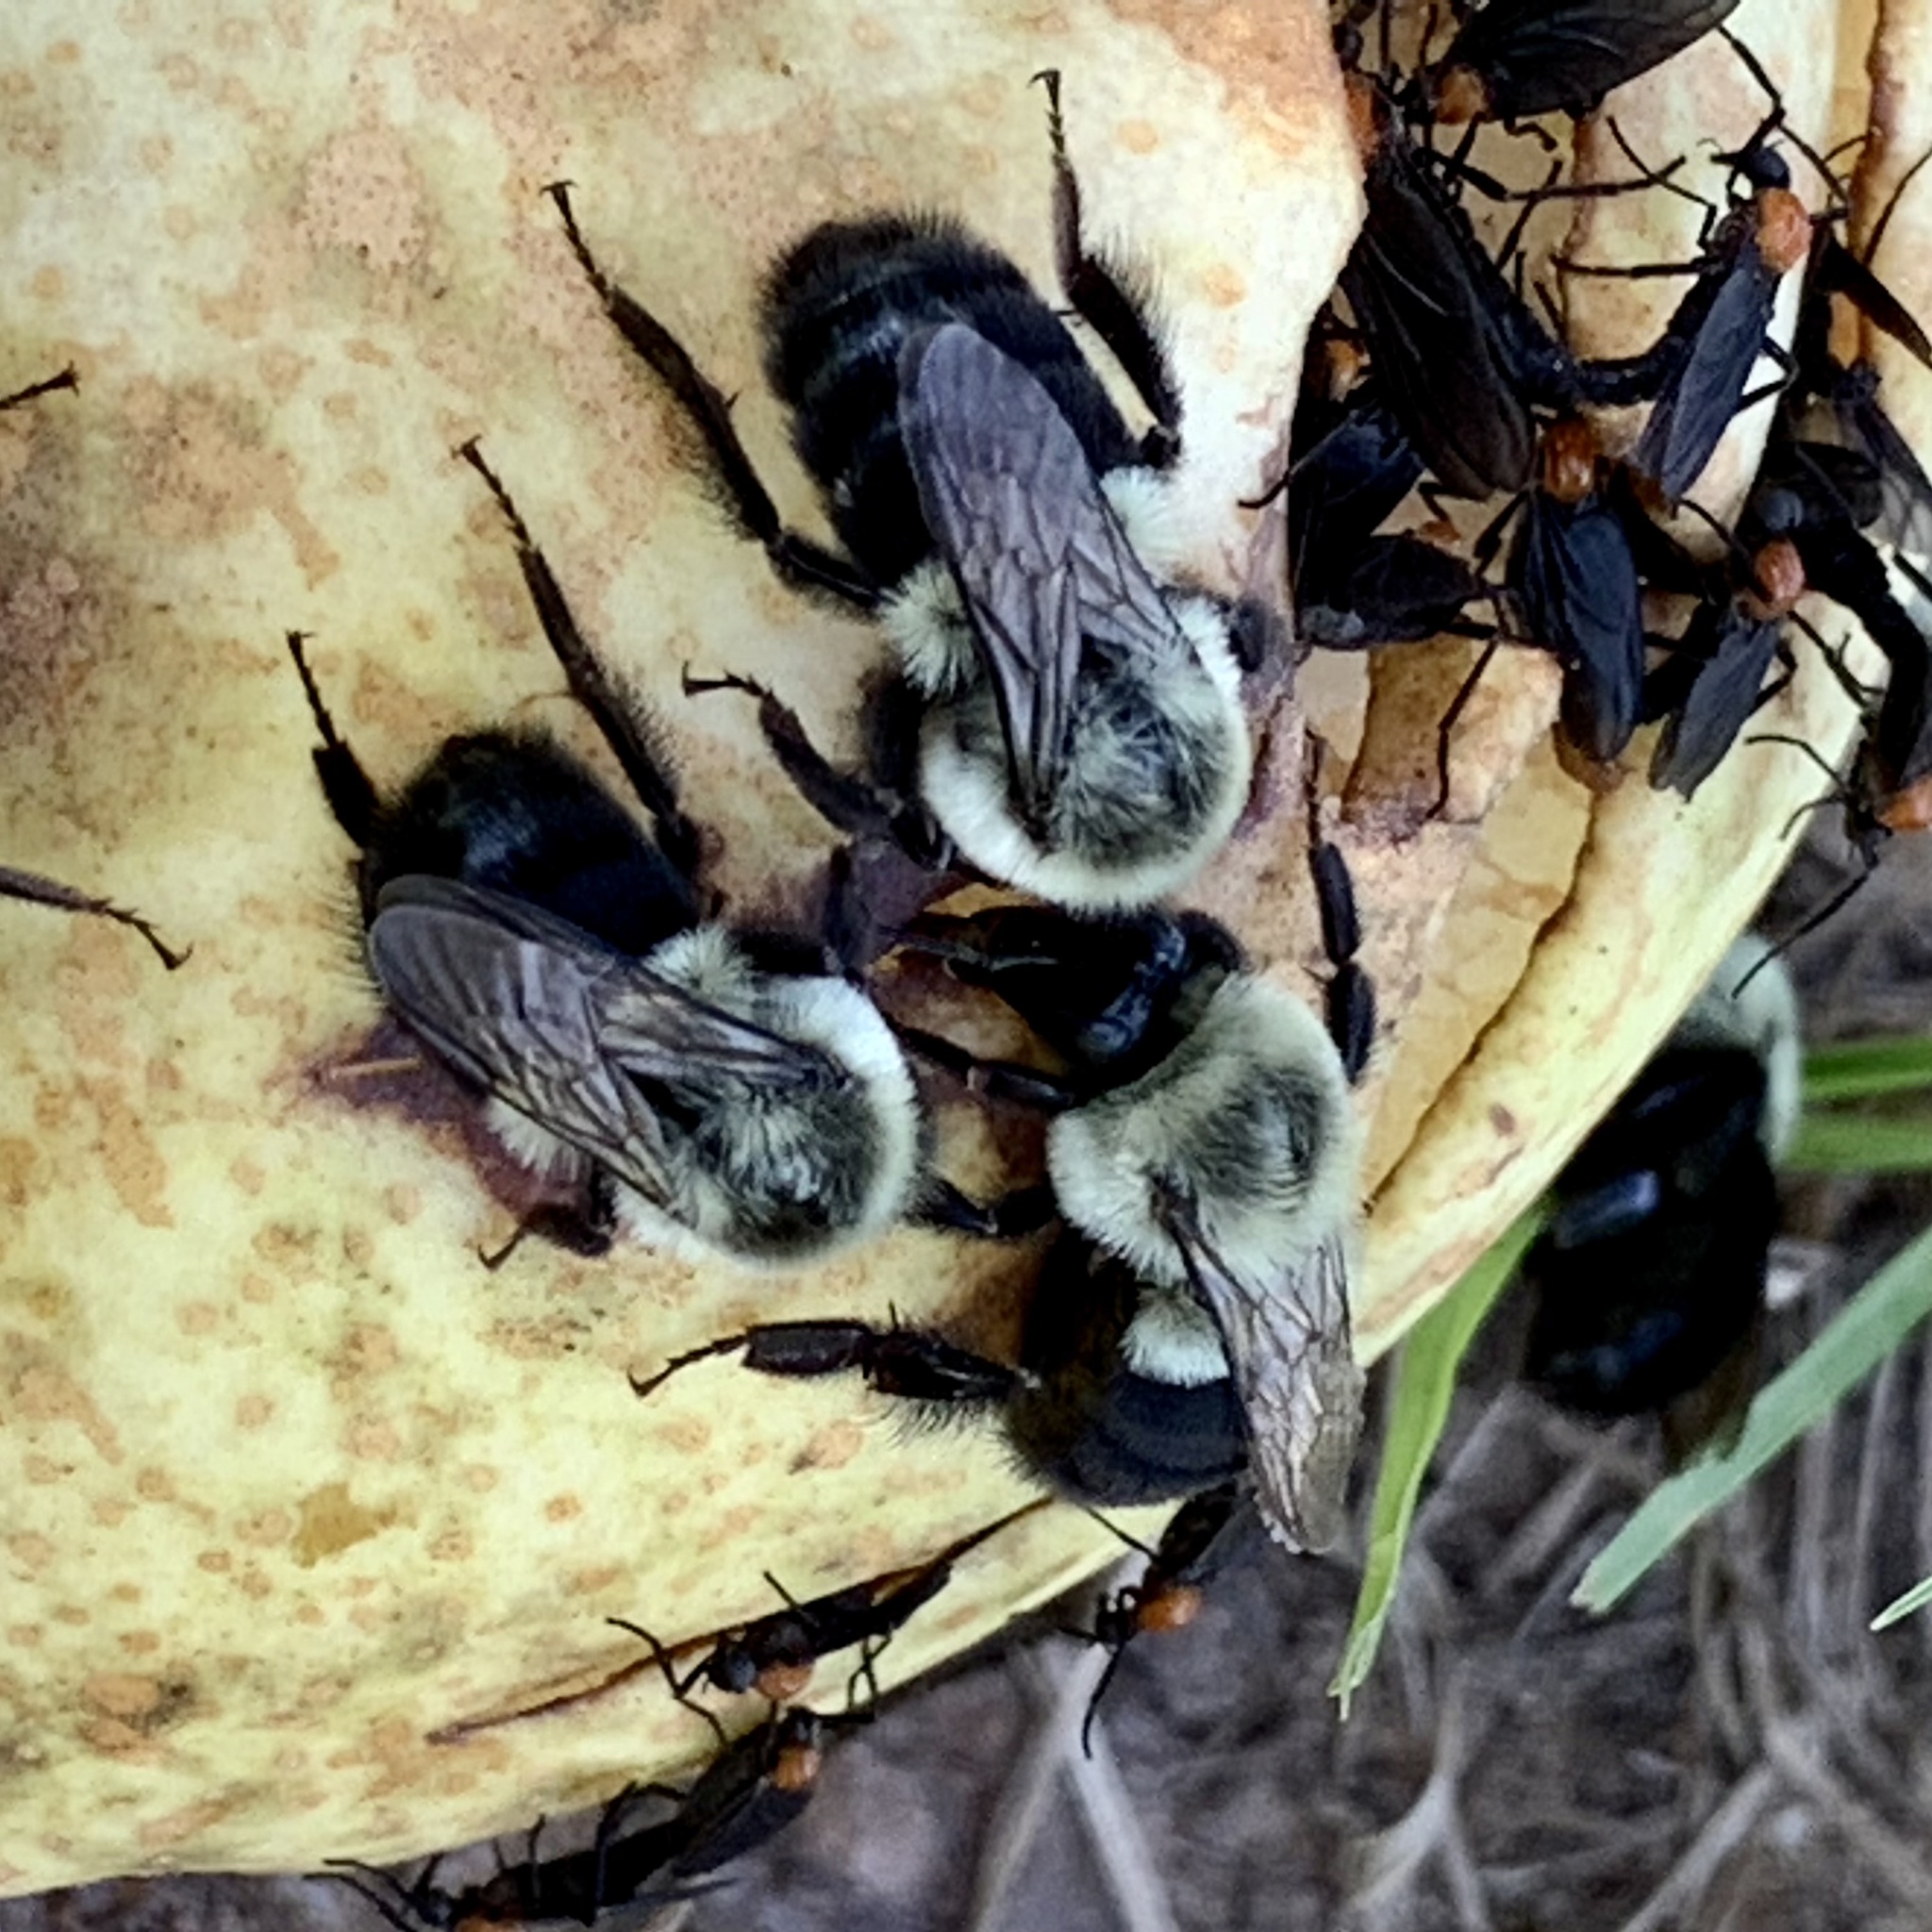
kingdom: Animalia
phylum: Arthropoda
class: Insecta
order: Hymenoptera
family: Apidae
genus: Bombus
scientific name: Bombus impatiens
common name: Common eastern bumble bee
